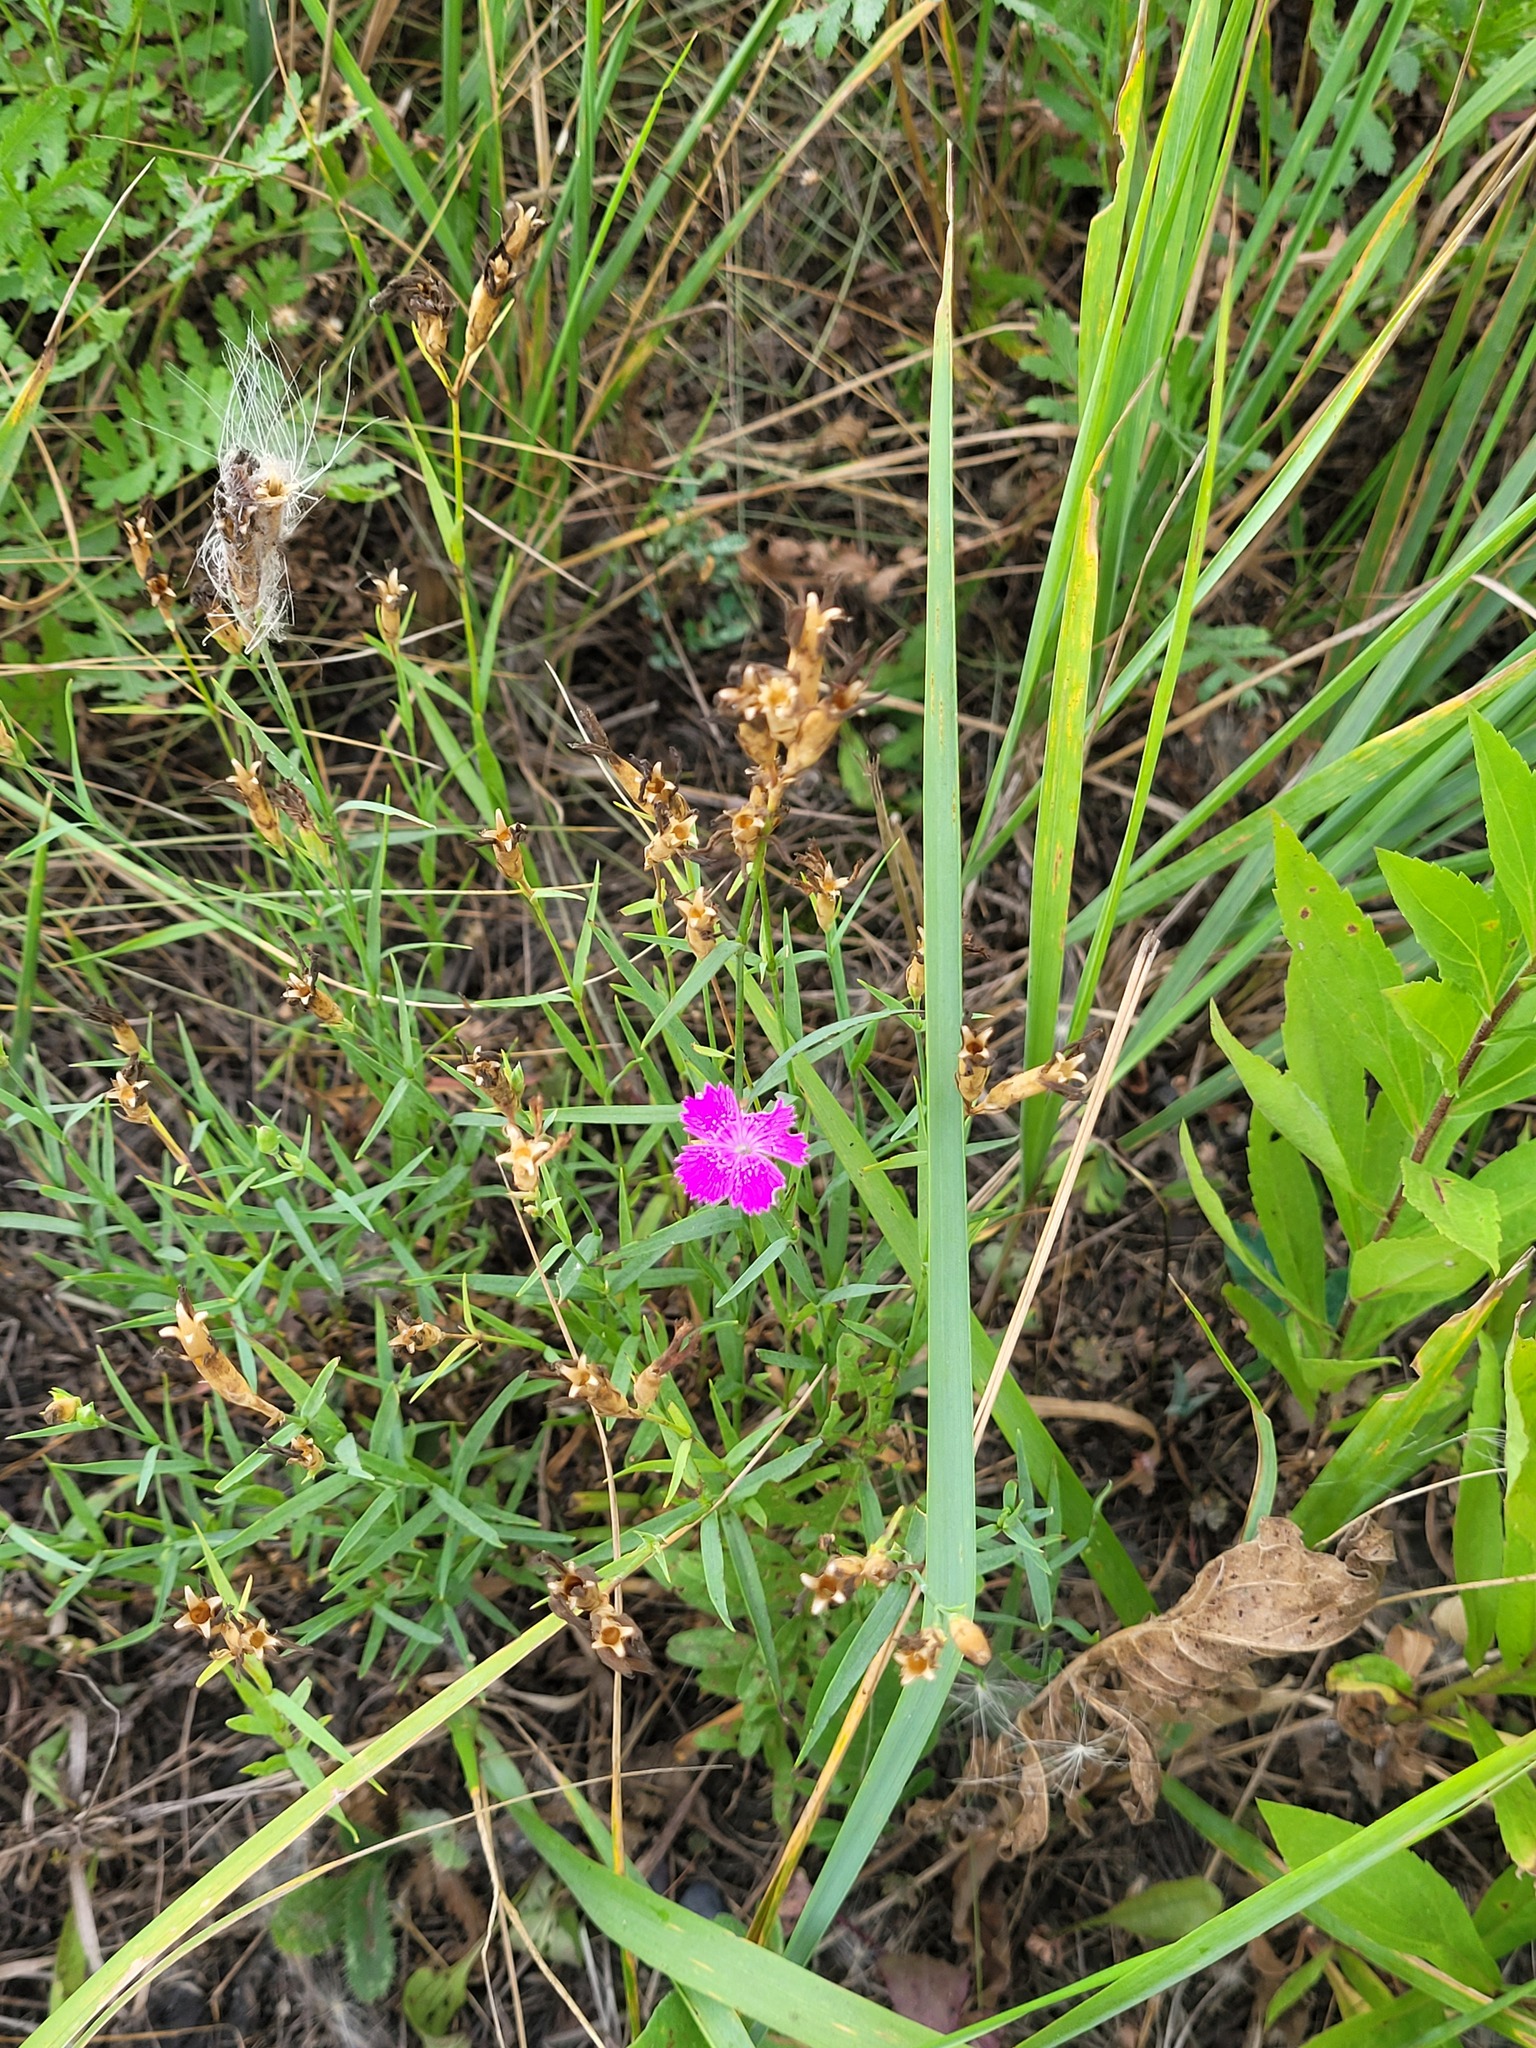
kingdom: Plantae
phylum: Tracheophyta
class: Magnoliopsida
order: Caryophyllales
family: Caryophyllaceae
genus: Dianthus
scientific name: Dianthus chinensis
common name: Rainbow pink
